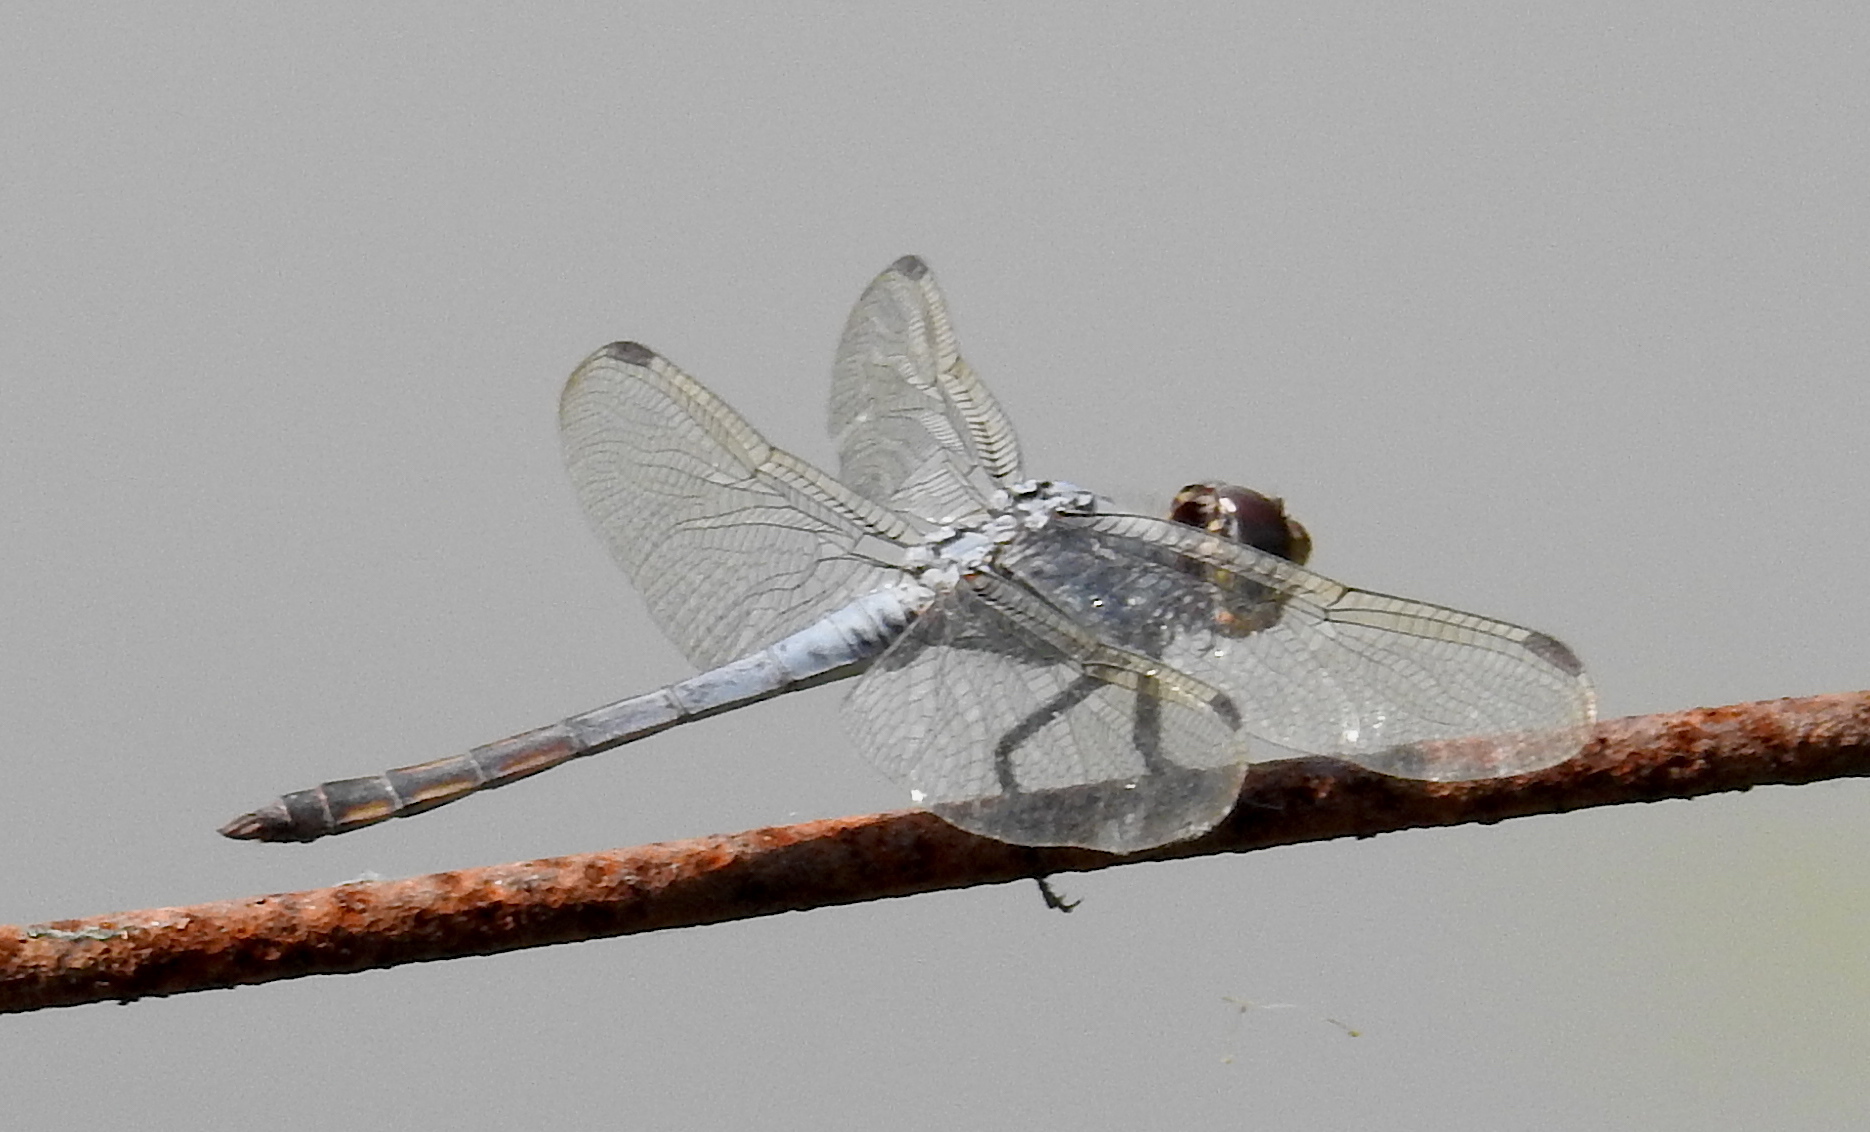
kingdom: Animalia
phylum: Arthropoda
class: Insecta
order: Odonata
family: Libellulidae
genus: Potamarcha
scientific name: Potamarcha congener
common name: Blue chaser
